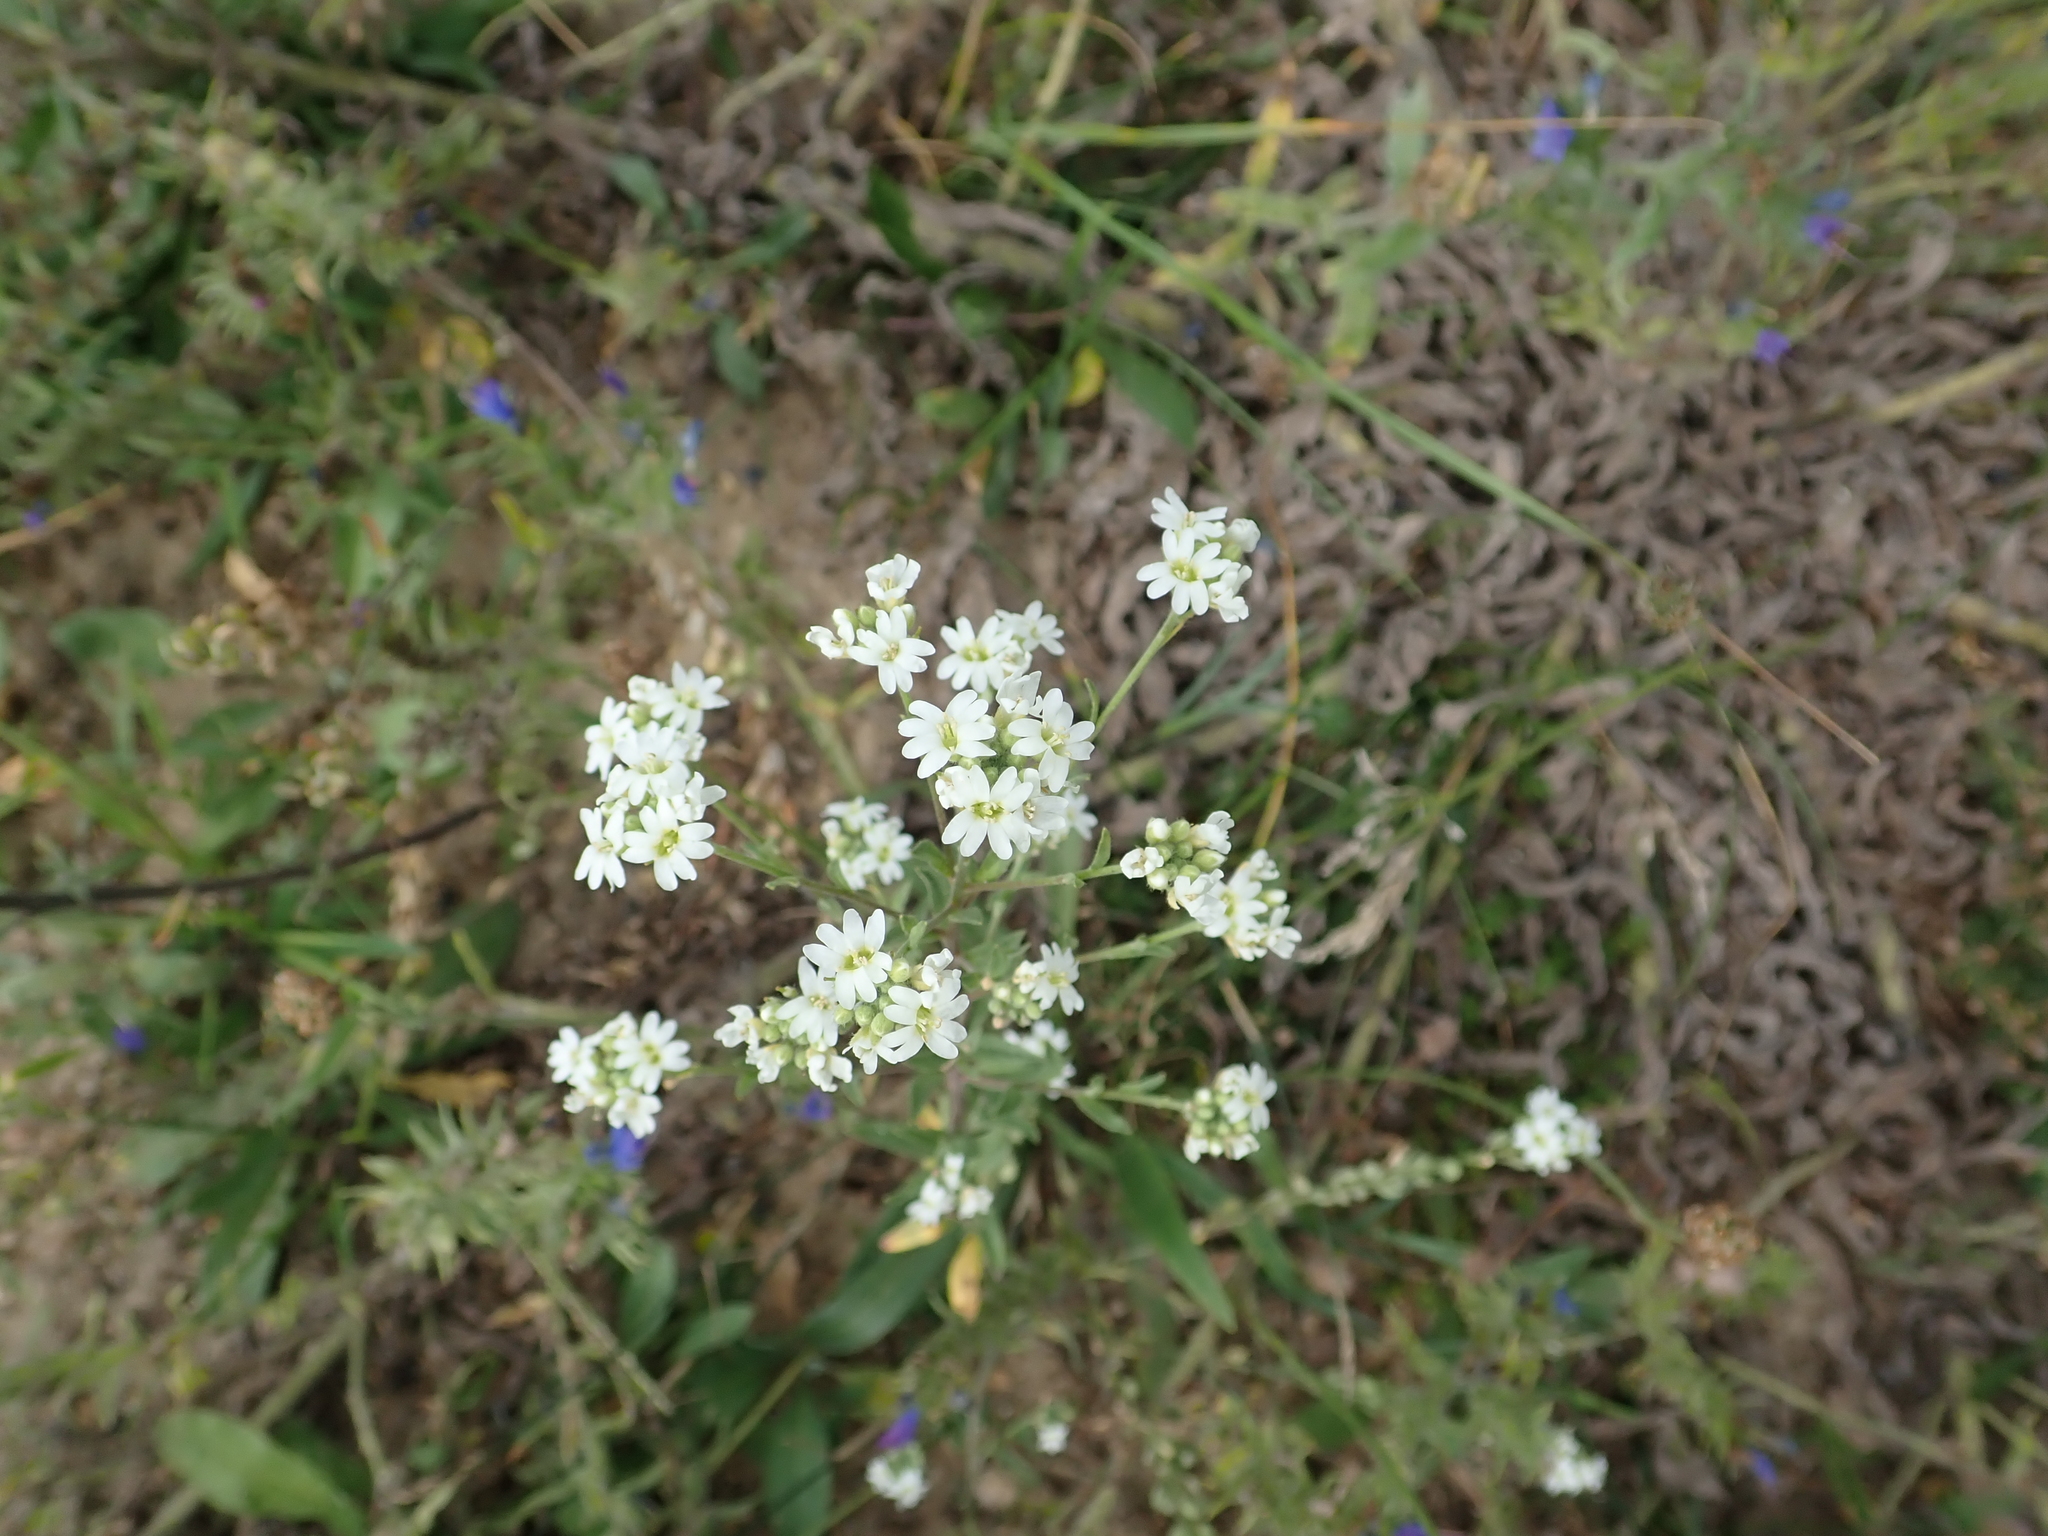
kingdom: Plantae
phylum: Tracheophyta
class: Magnoliopsida
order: Brassicales
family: Brassicaceae
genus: Berteroa
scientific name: Berteroa incana
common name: Hoary alison
